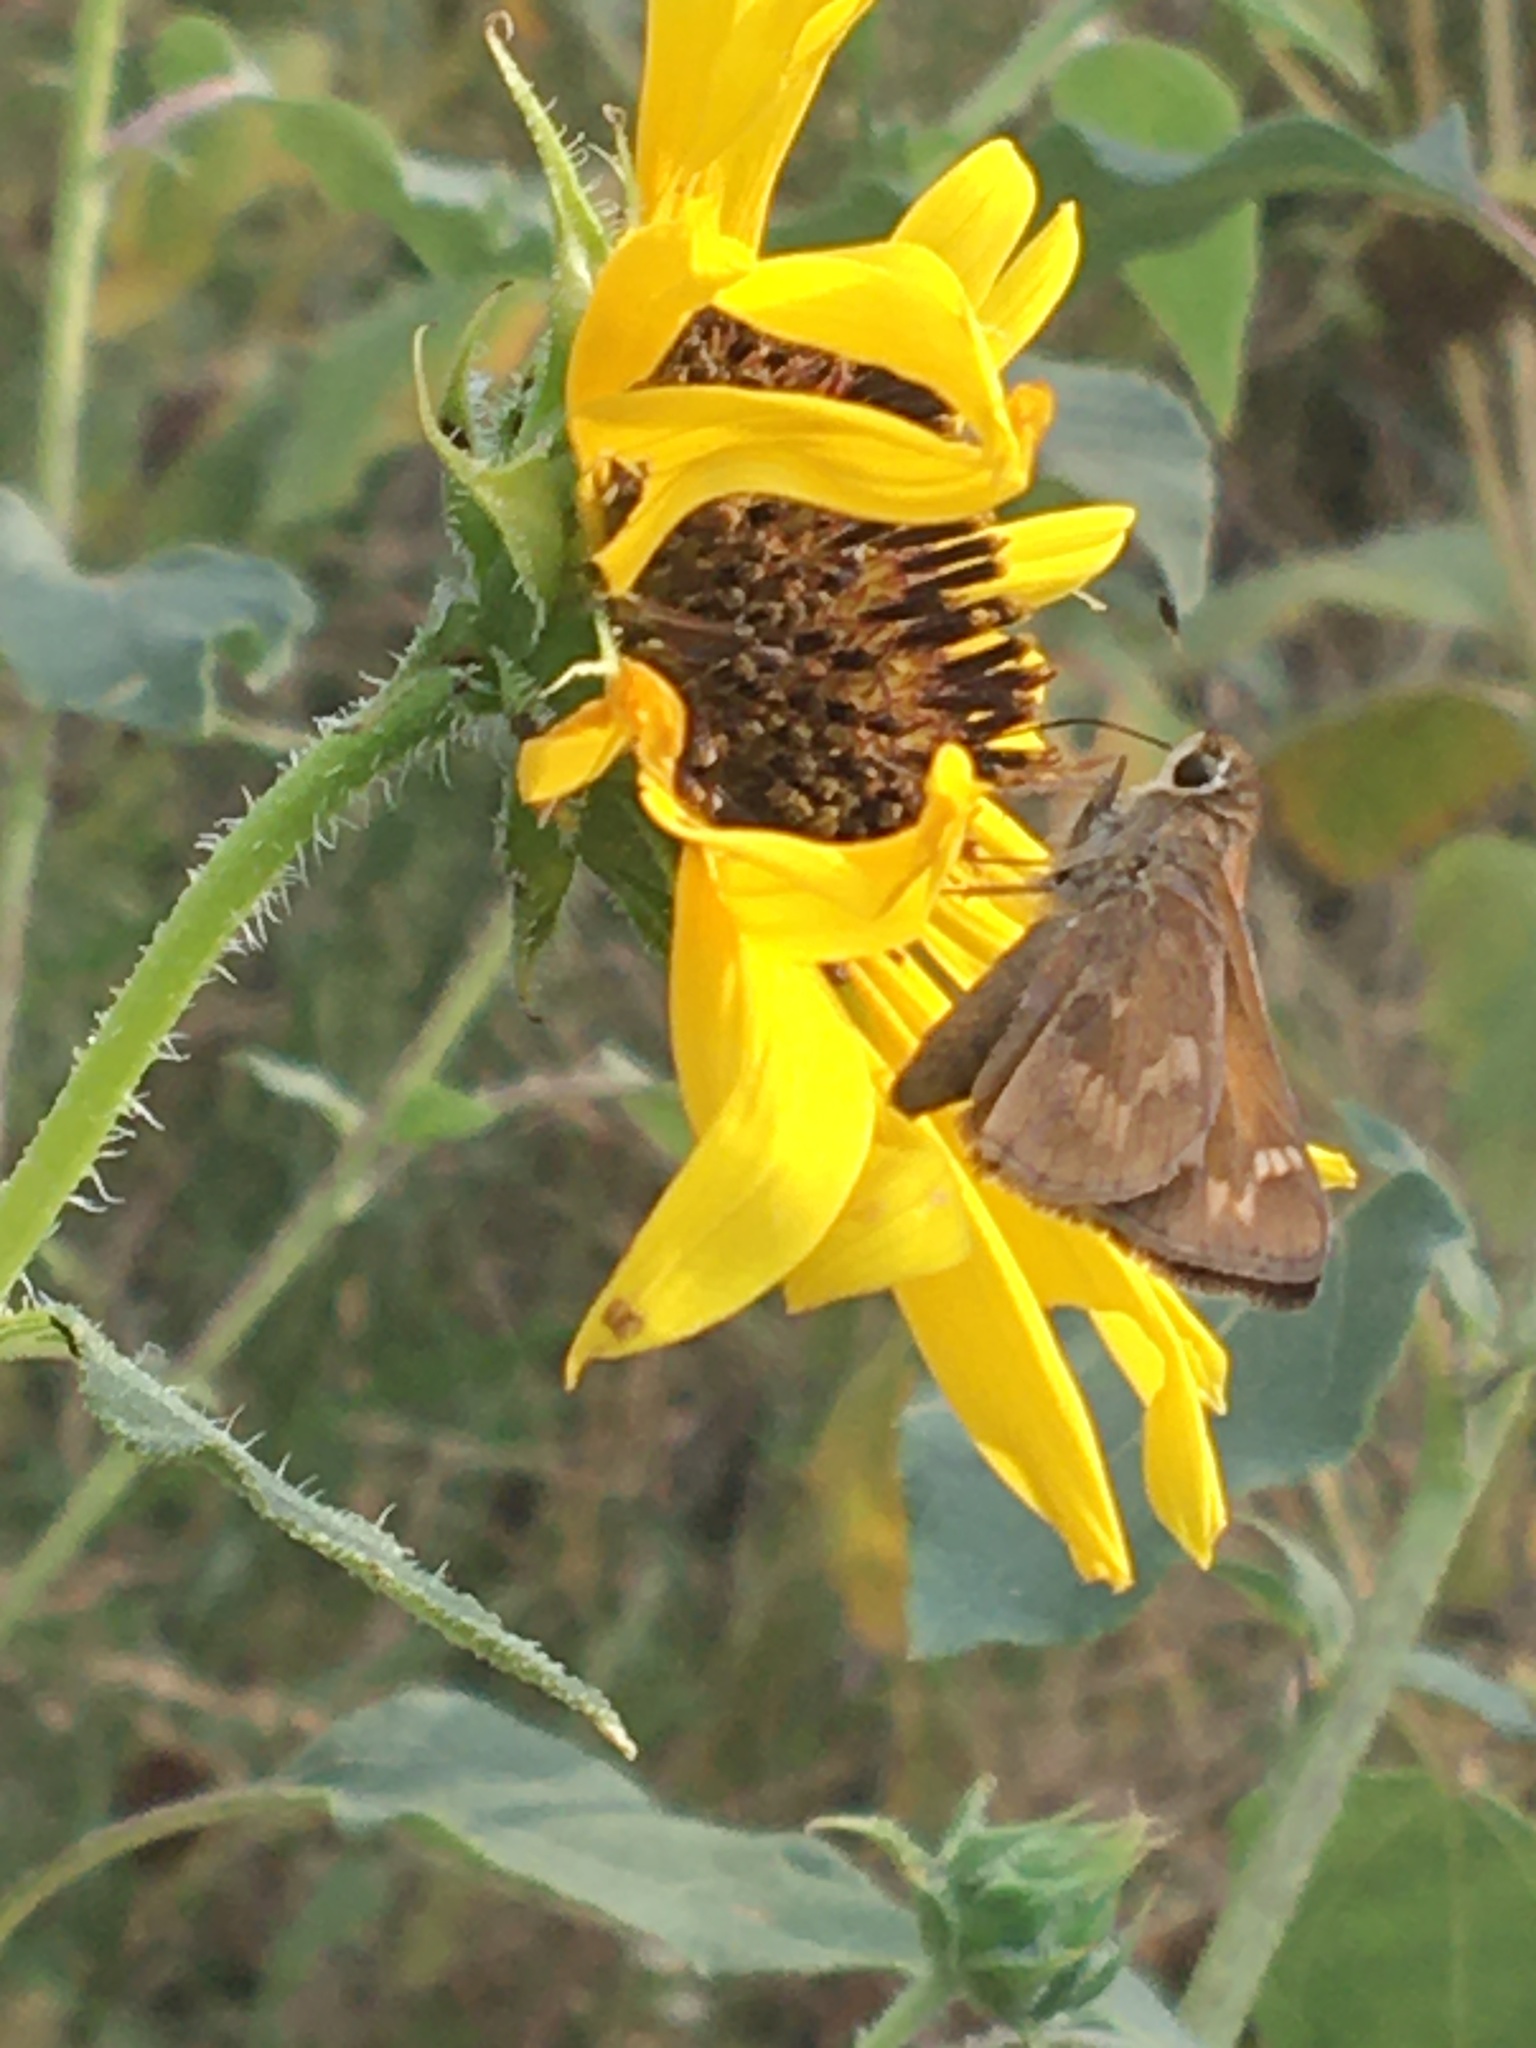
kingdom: Animalia
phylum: Arthropoda
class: Insecta
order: Lepidoptera
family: Hesperiidae
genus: Atalopedes
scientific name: Atalopedes
